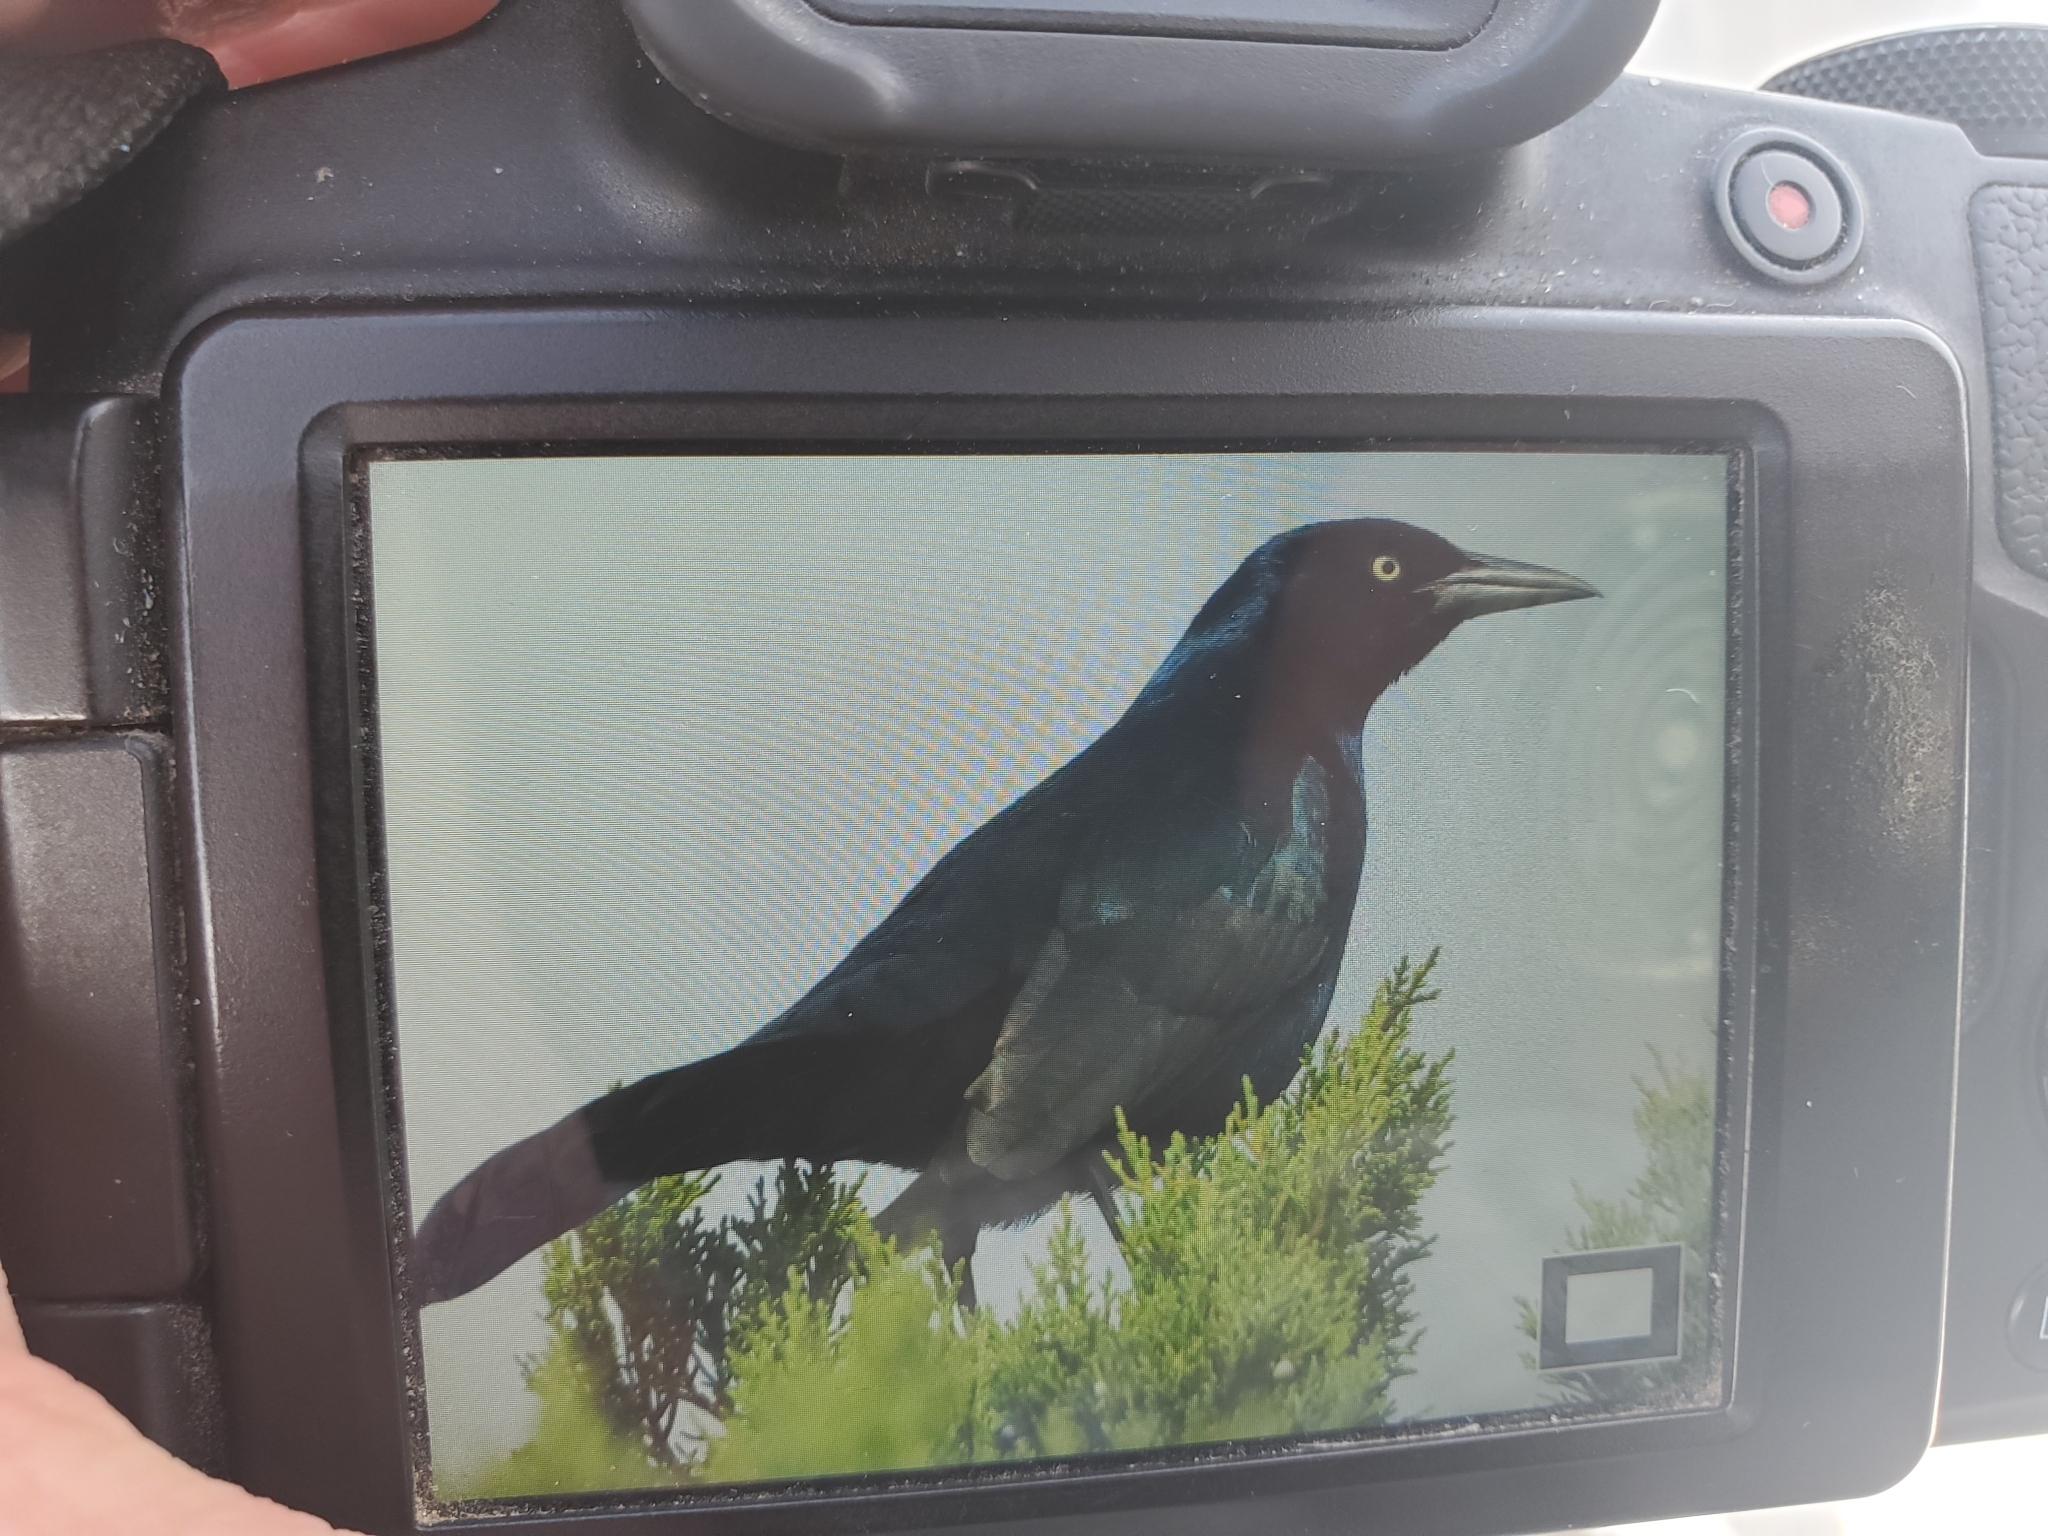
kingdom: Animalia
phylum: Chordata
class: Aves
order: Passeriformes
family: Icteridae
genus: Quiscalus
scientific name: Quiscalus major
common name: Boat-tailed grackle
